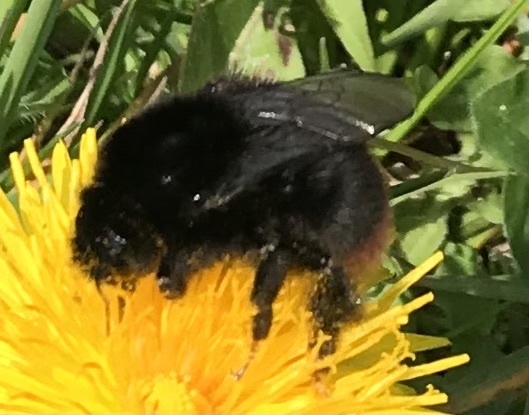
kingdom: Animalia
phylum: Arthropoda
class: Insecta
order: Hymenoptera
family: Apidae
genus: Bombus
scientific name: Bombus lapidarius
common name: Large red-tailed humble-bee
